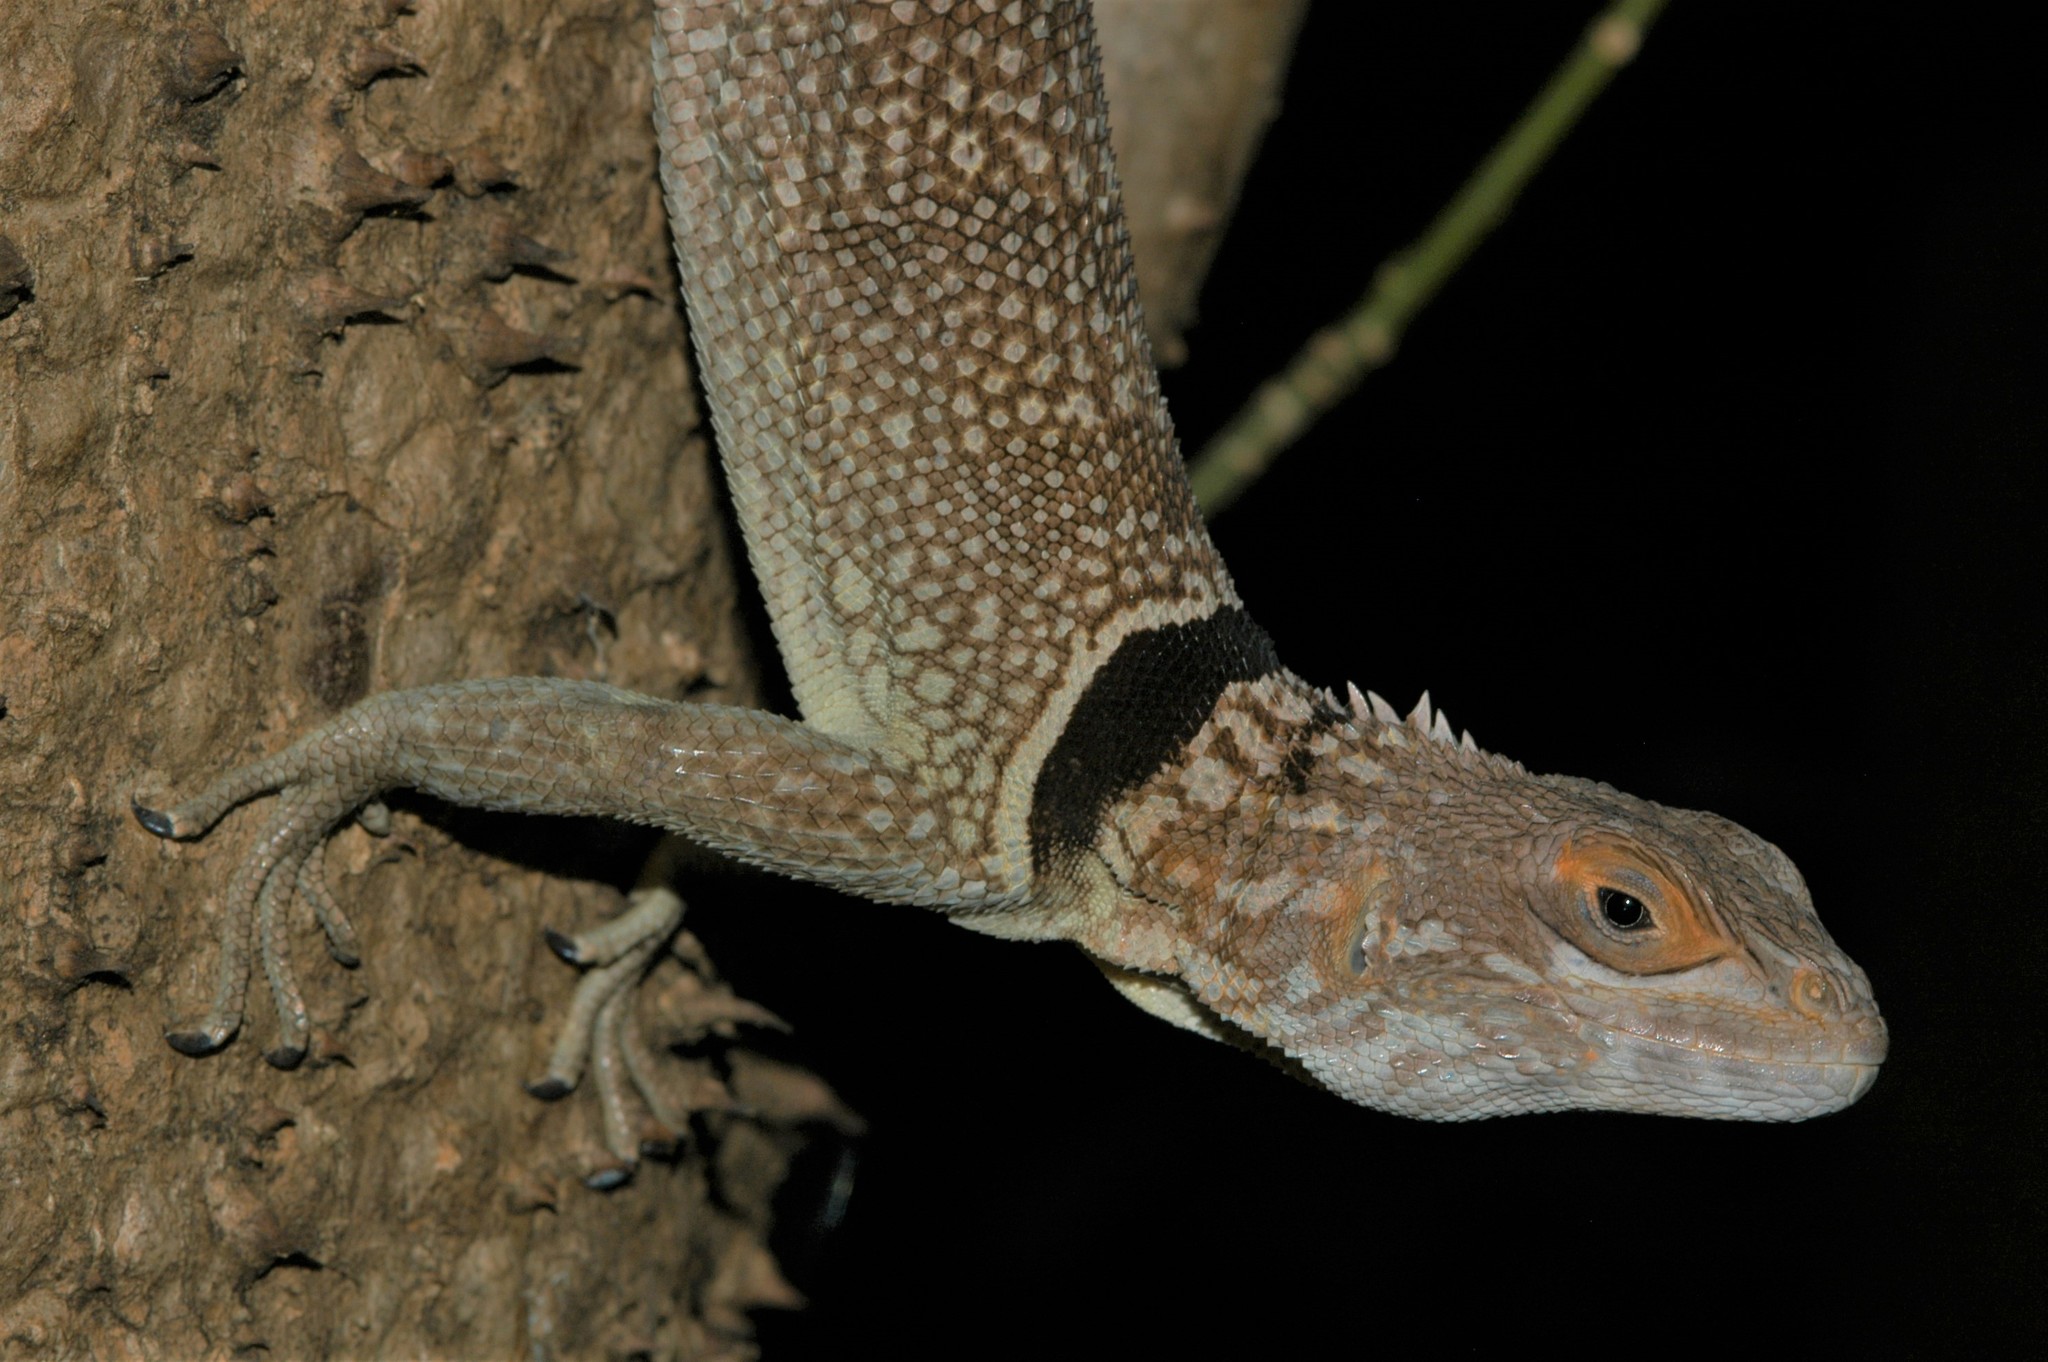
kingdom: Animalia
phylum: Chordata
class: Squamata
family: Opluridae
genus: Oplurus
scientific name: Oplurus cuvieri
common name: Cuvier's madagascar swift
